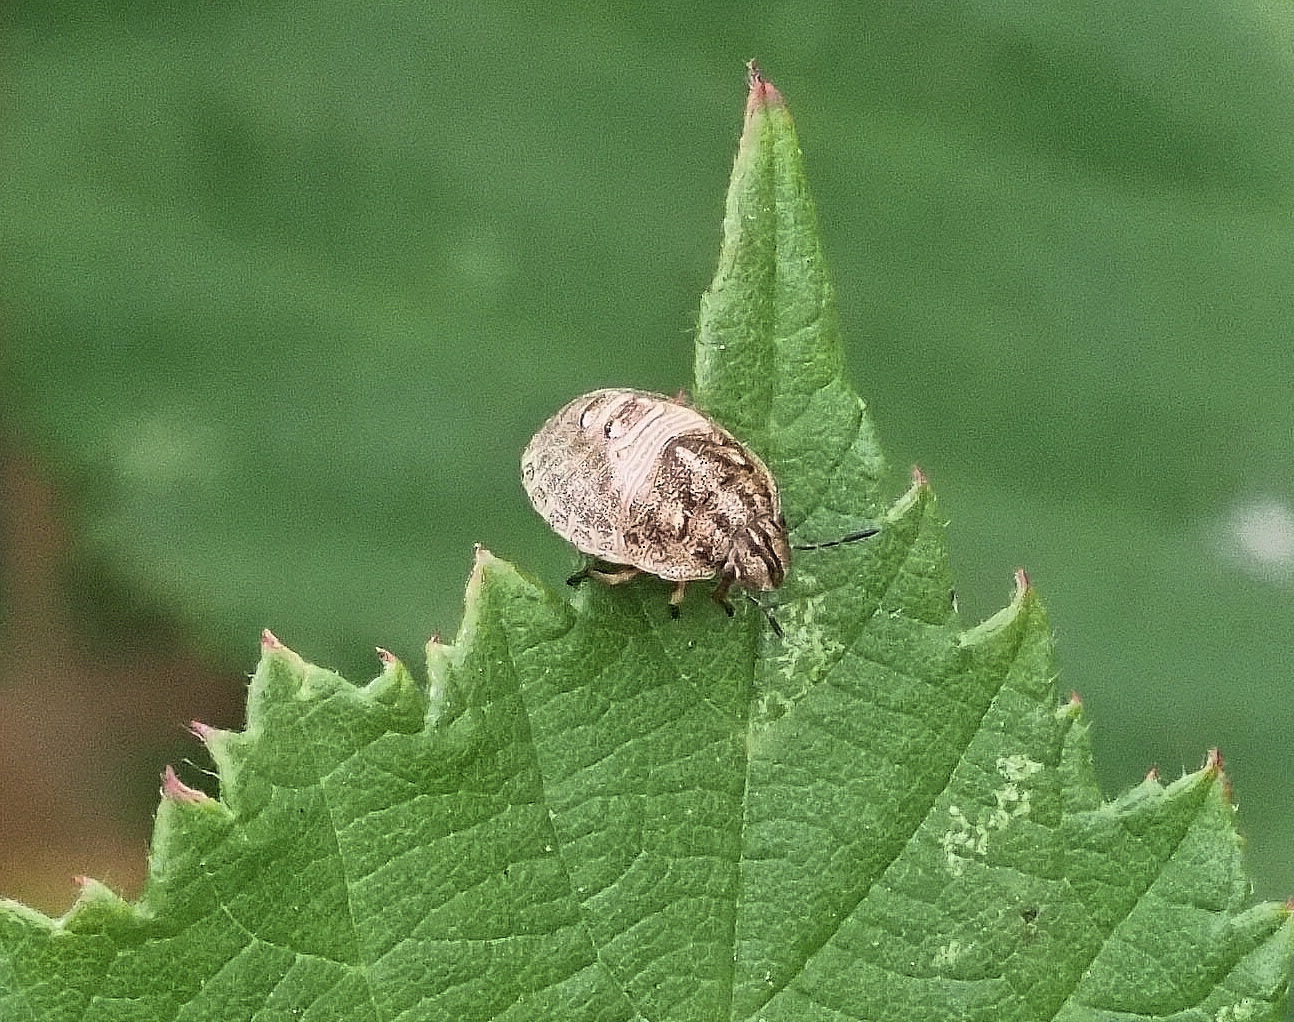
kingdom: Animalia
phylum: Arthropoda
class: Insecta
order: Hemiptera
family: Scutelleridae
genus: Eurygaster
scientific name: Eurygaster testudinaria
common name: Tortoise bug
